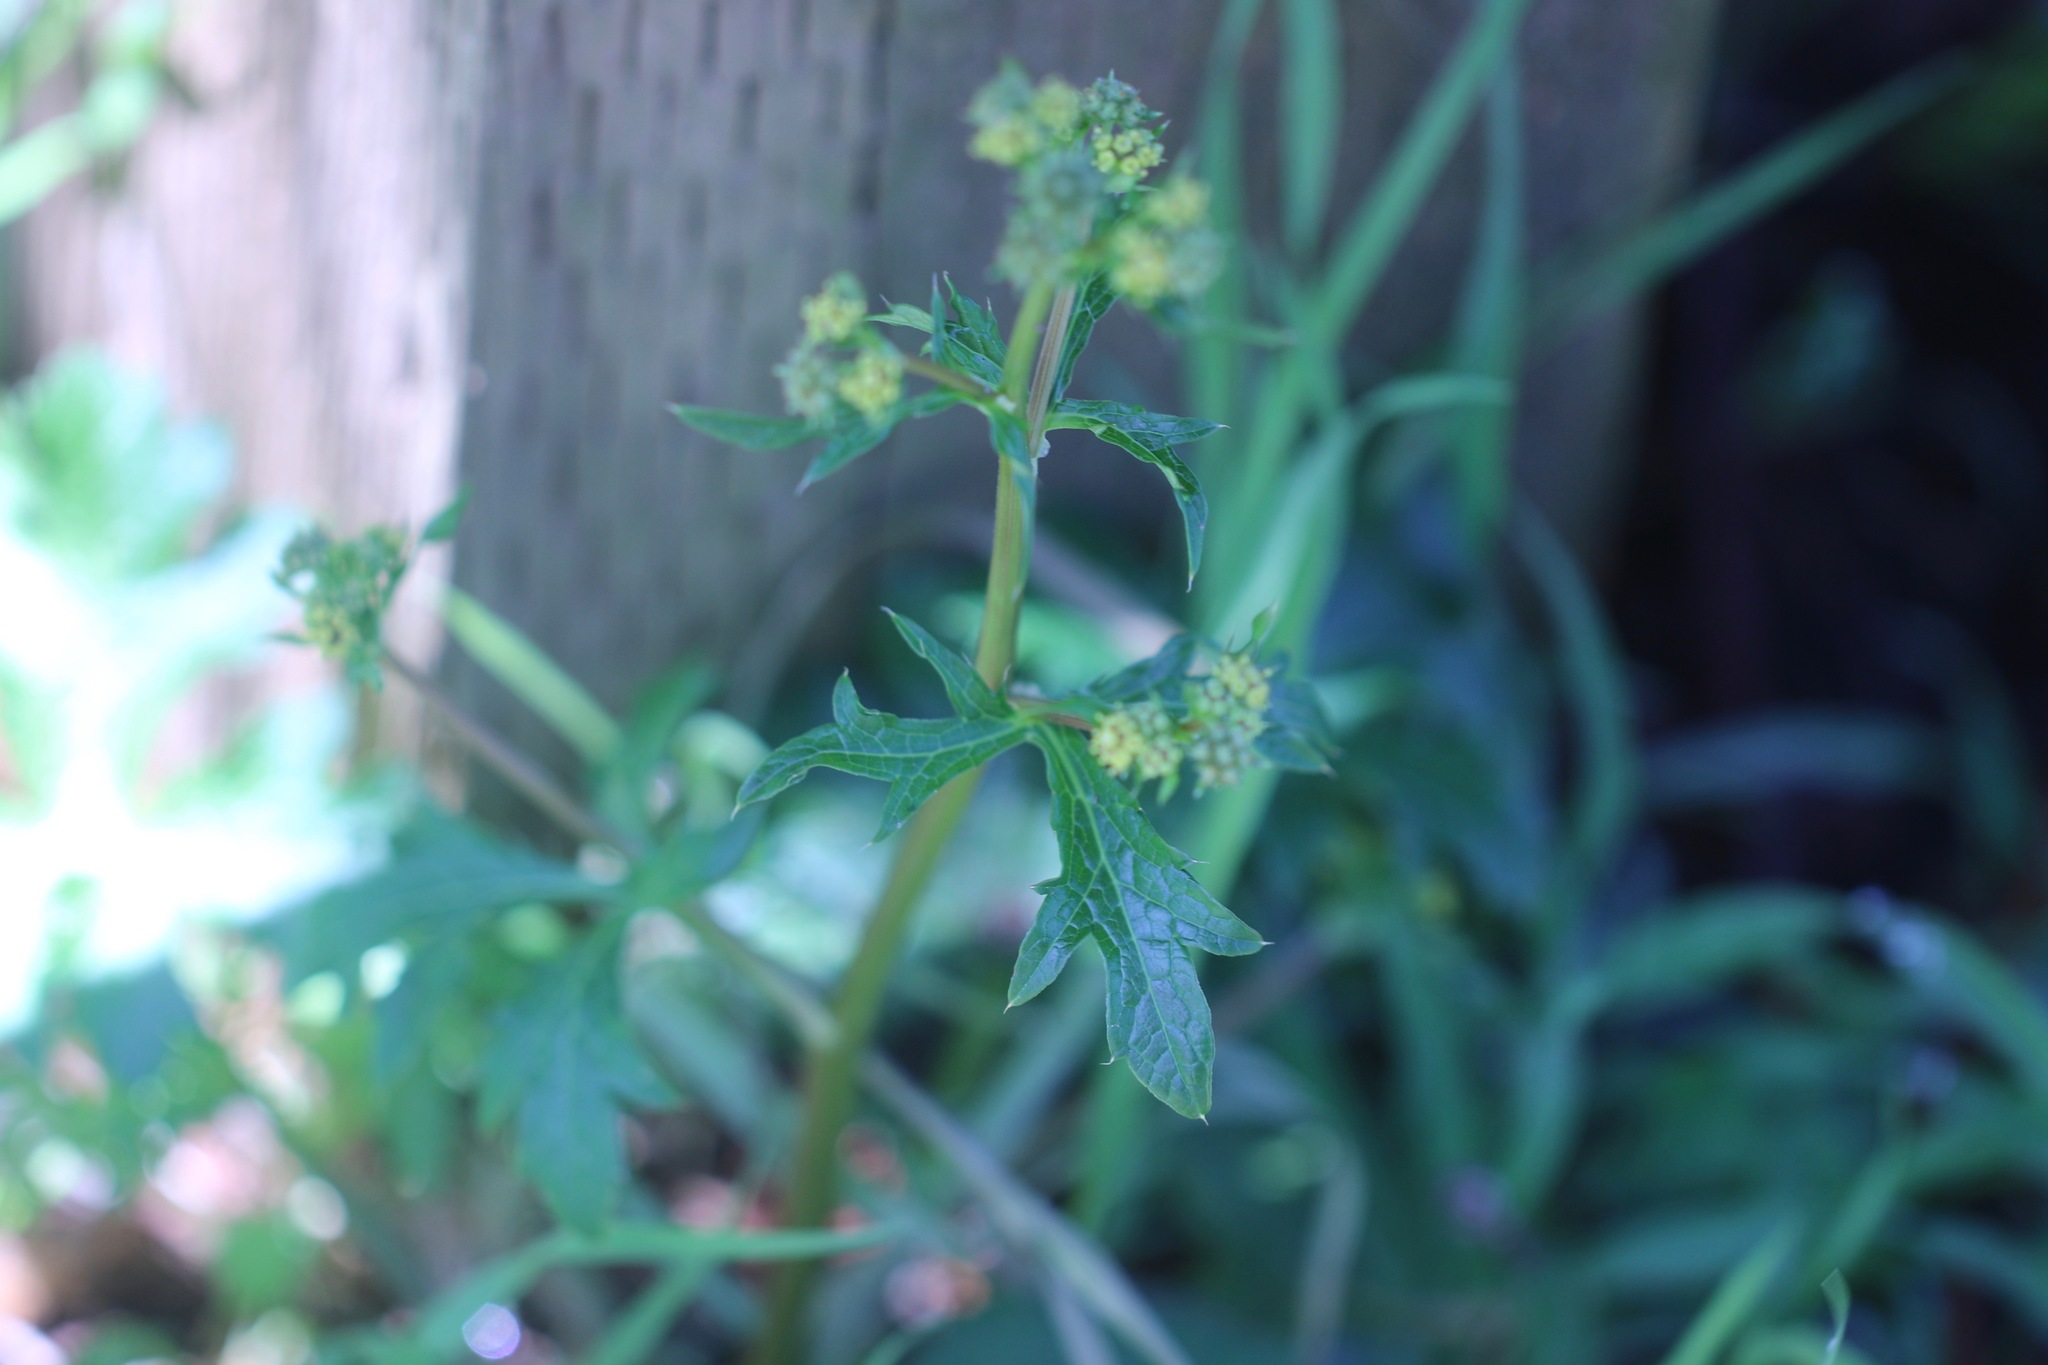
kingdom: Plantae
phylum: Tracheophyta
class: Magnoliopsida
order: Apiales
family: Apiaceae
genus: Sanicula
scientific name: Sanicula crassicaulis
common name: Western snakeroot
